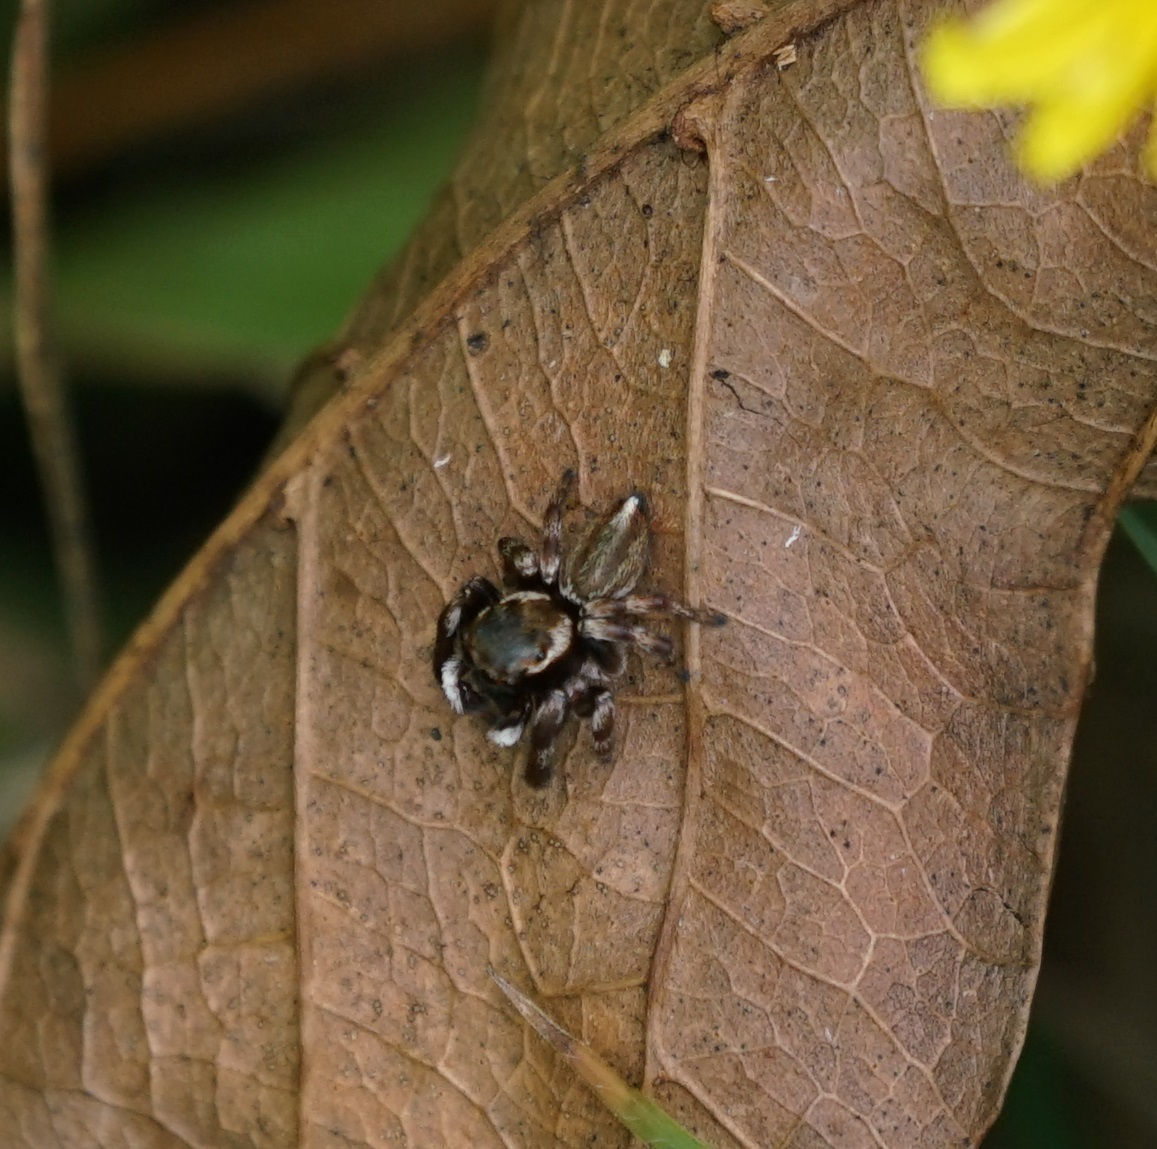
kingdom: Animalia
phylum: Arthropoda
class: Arachnida
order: Araneae
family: Salticidae
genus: Maratus
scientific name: Maratus scutulatus
